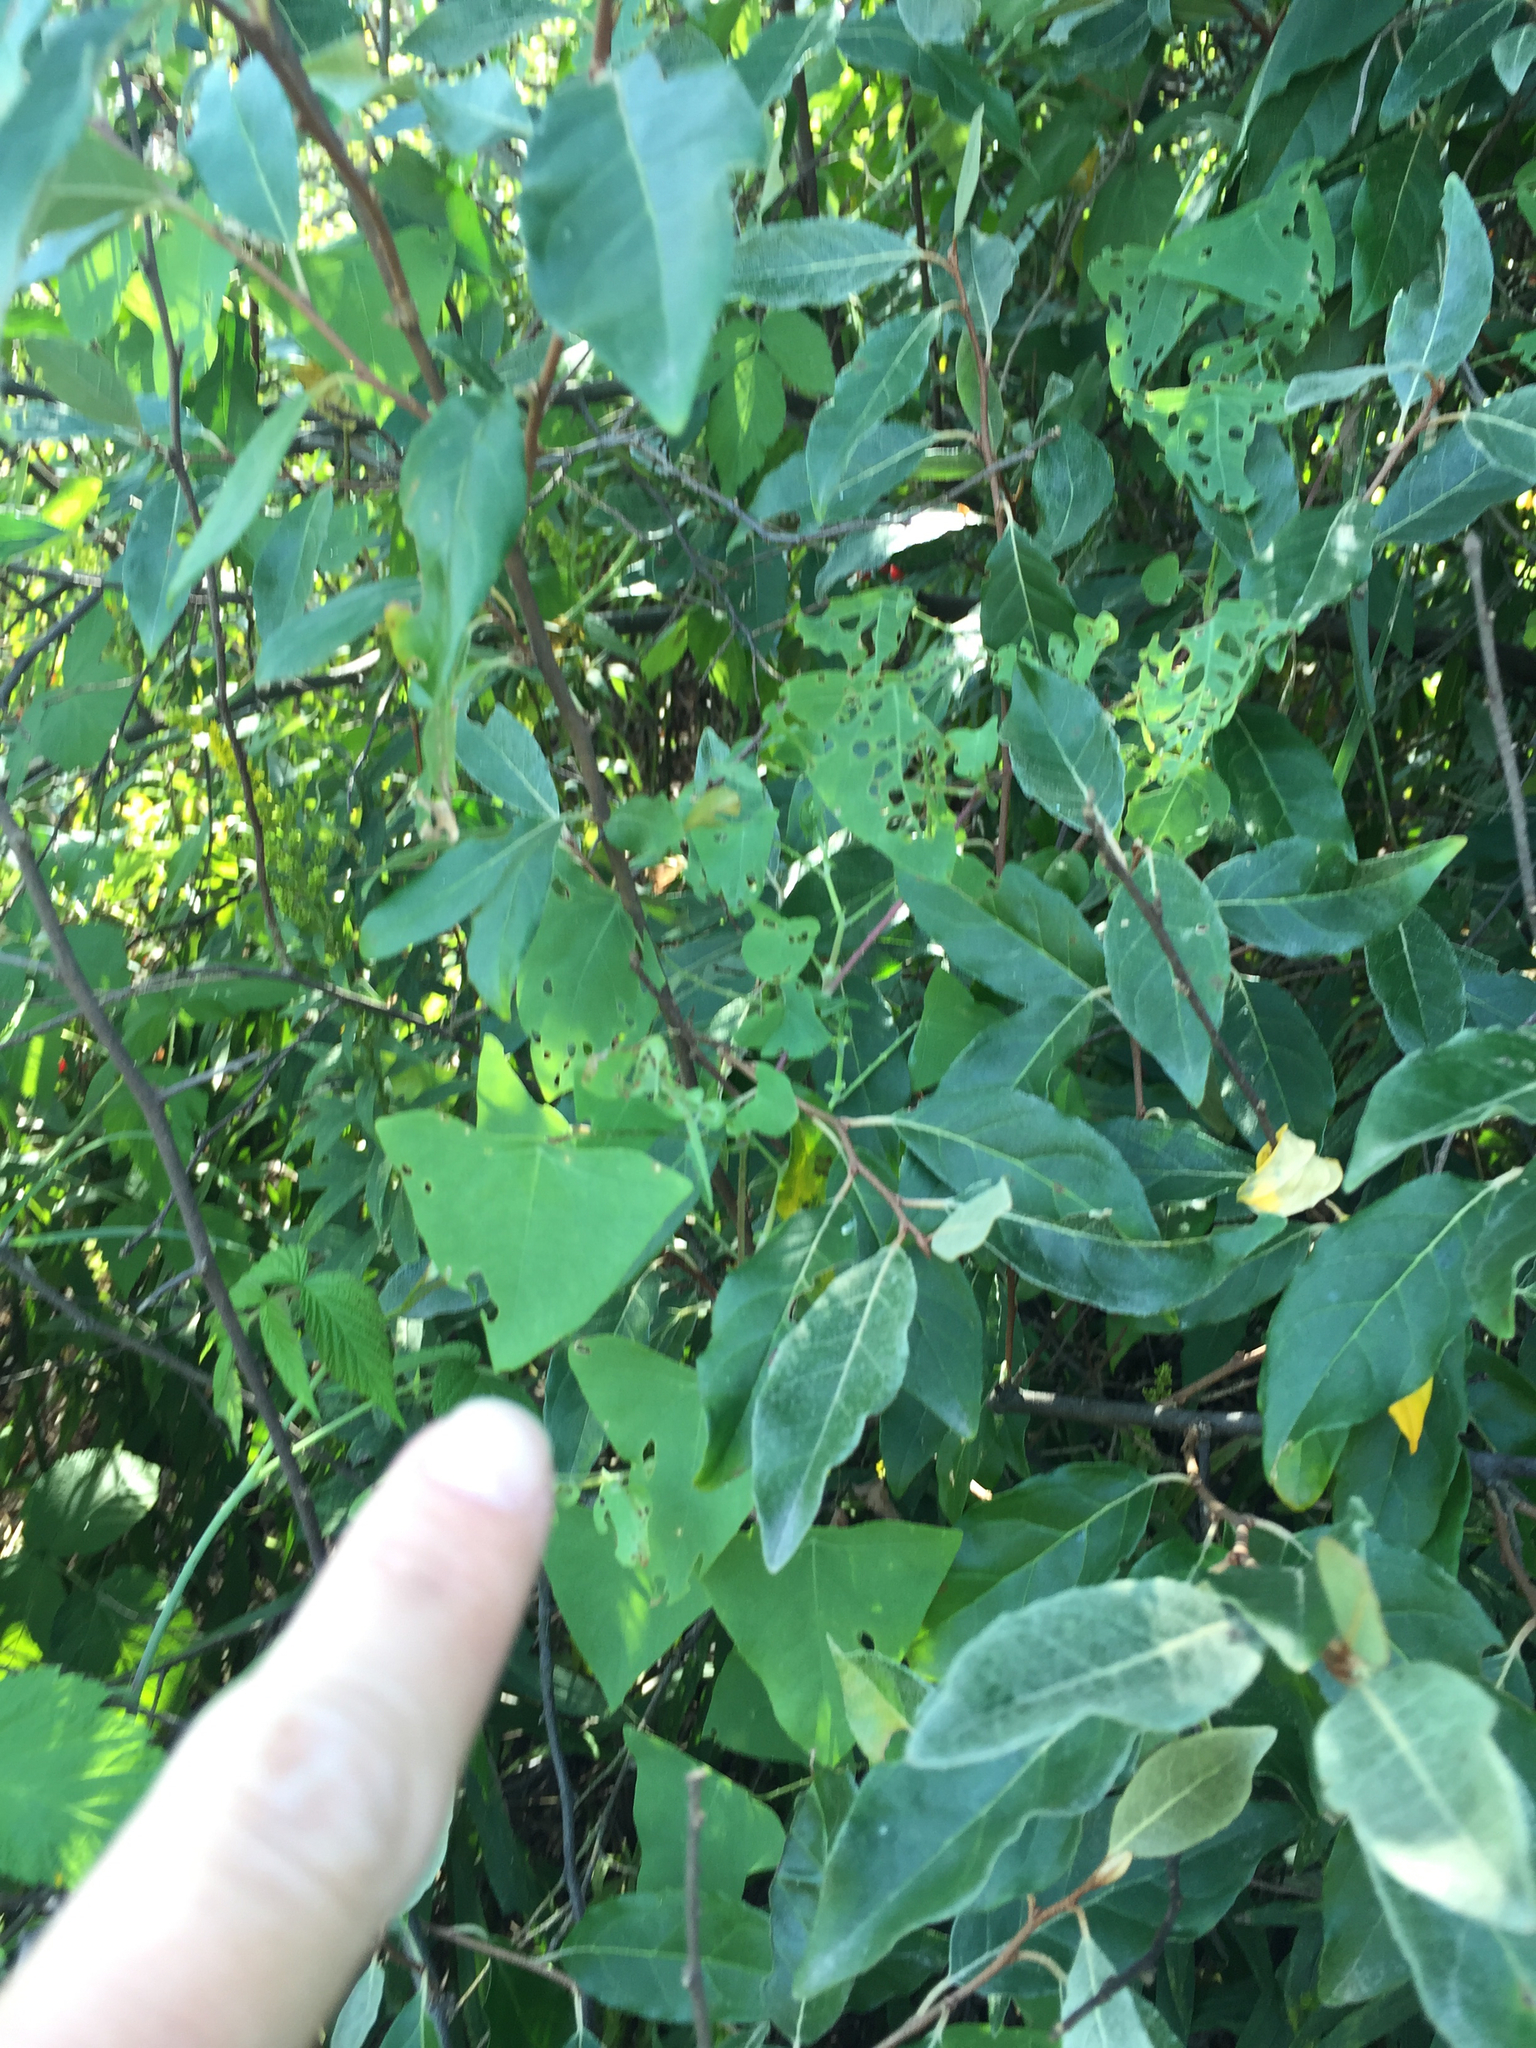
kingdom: Plantae
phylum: Tracheophyta
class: Magnoliopsida
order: Caryophyllales
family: Polygonaceae
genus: Persicaria
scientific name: Persicaria perfoliata
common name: Asiatic tearthumb
